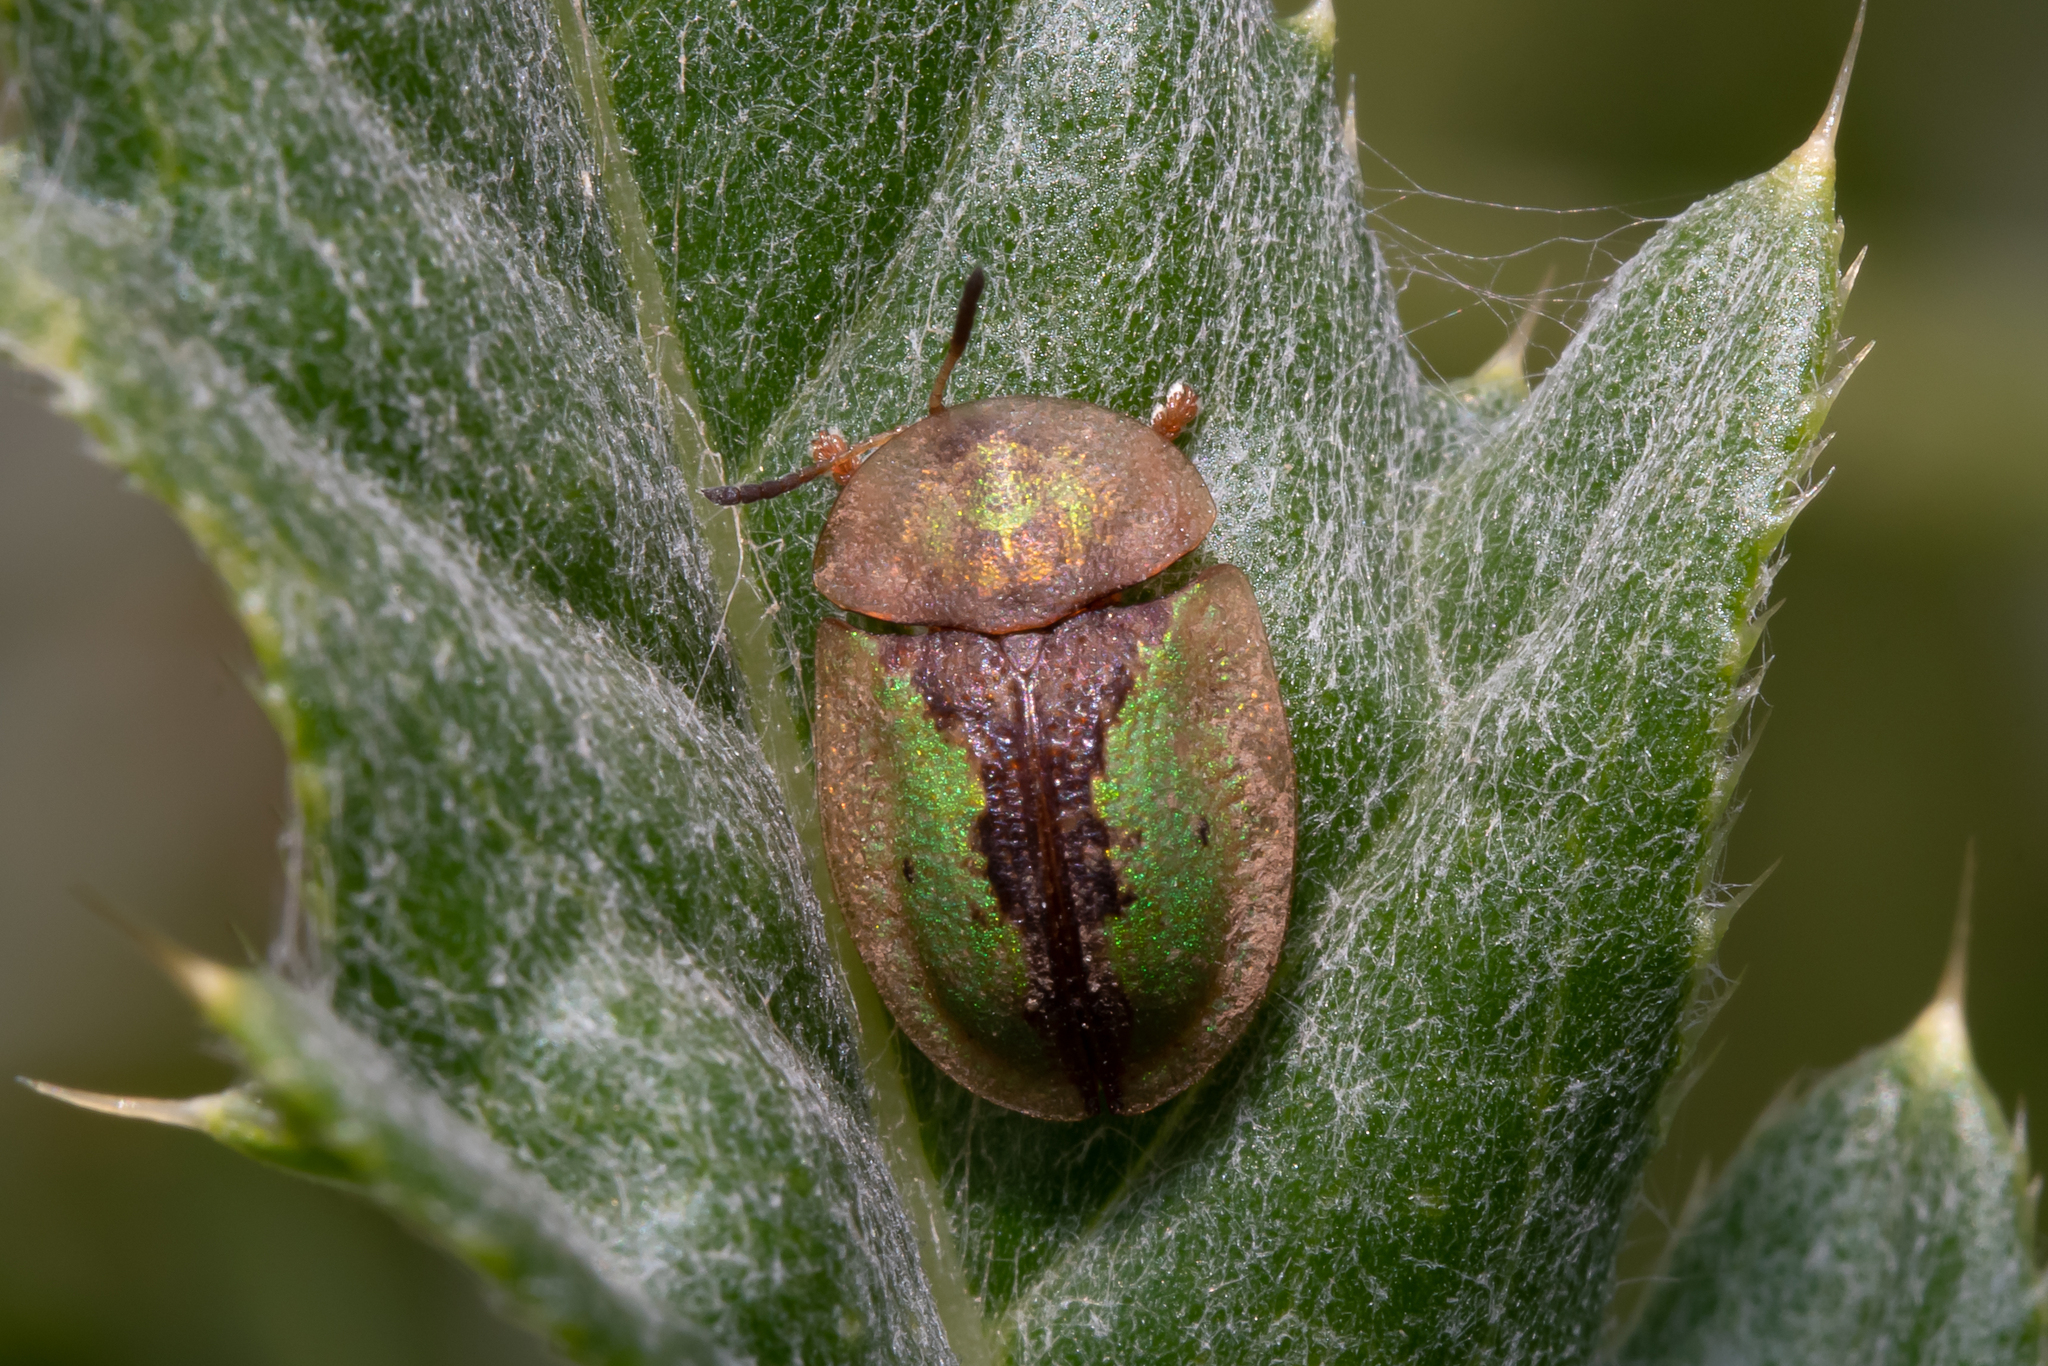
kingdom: Animalia
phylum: Arthropoda
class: Insecta
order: Coleoptera
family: Chrysomelidae
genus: Cassida
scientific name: Cassida vibex
